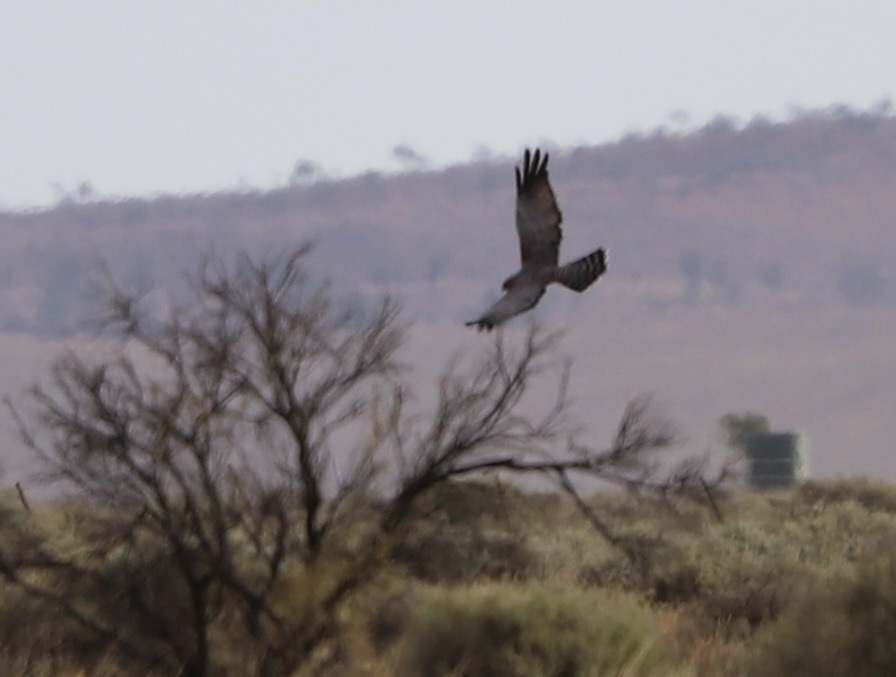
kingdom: Animalia
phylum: Chordata
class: Aves
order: Accipitriformes
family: Accipitridae
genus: Circus
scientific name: Circus assimilis
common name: Spotted harrier
